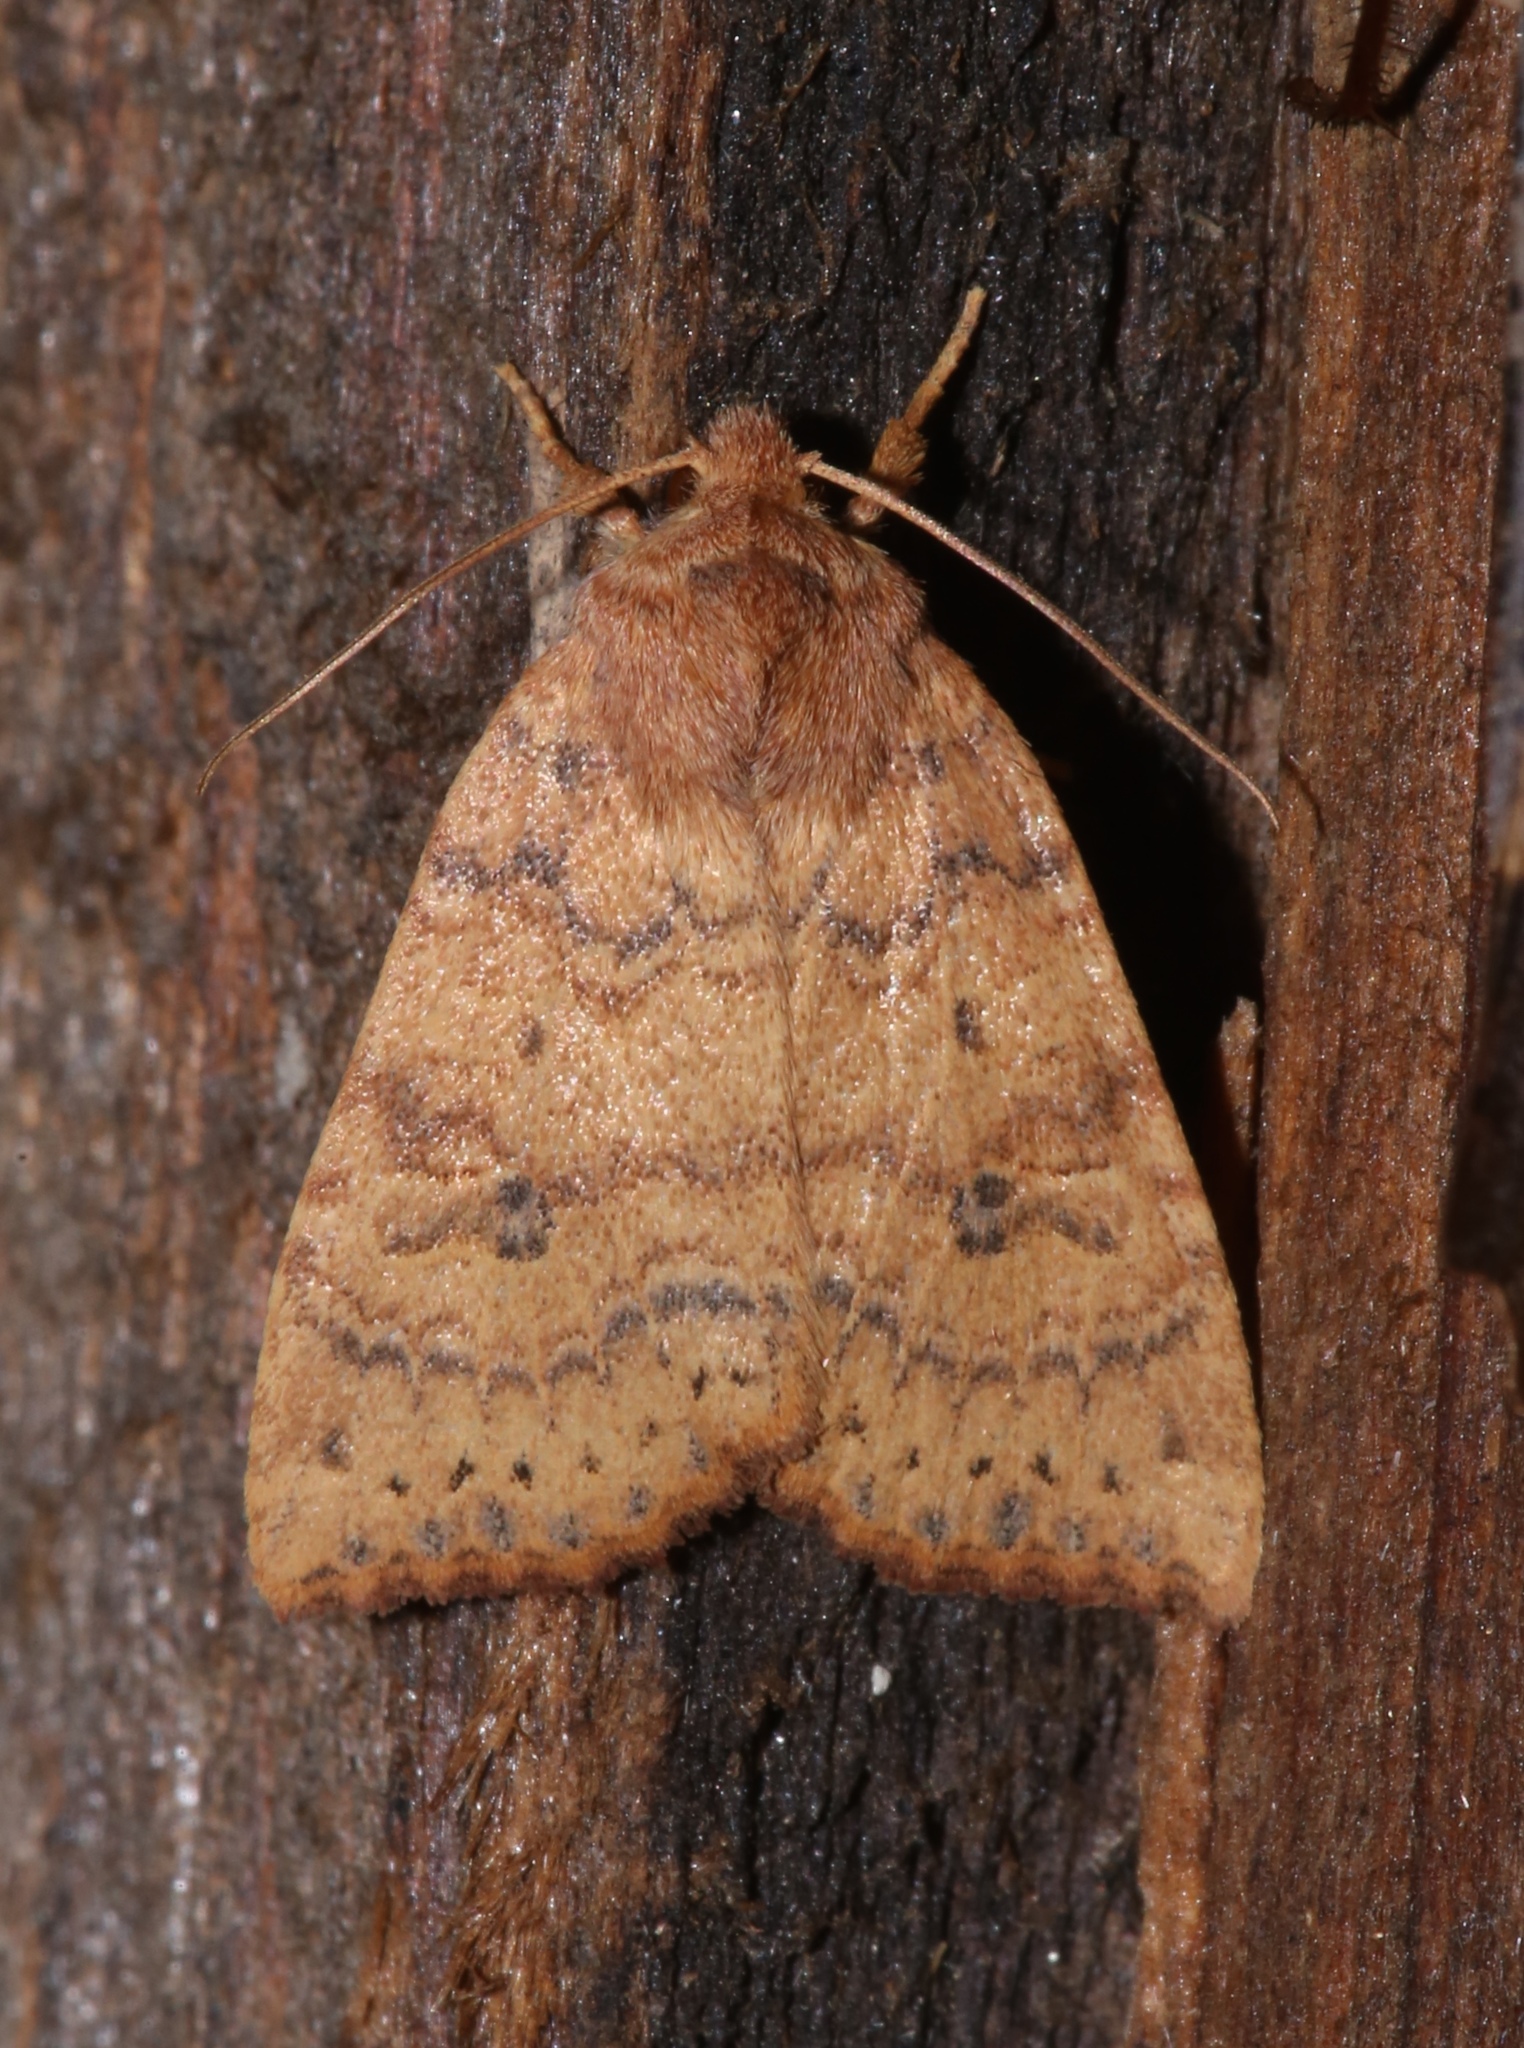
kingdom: Animalia
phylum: Arthropoda
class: Insecta
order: Lepidoptera
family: Noctuidae
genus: Anathix
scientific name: Anathix ralla
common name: Dotted sallow
